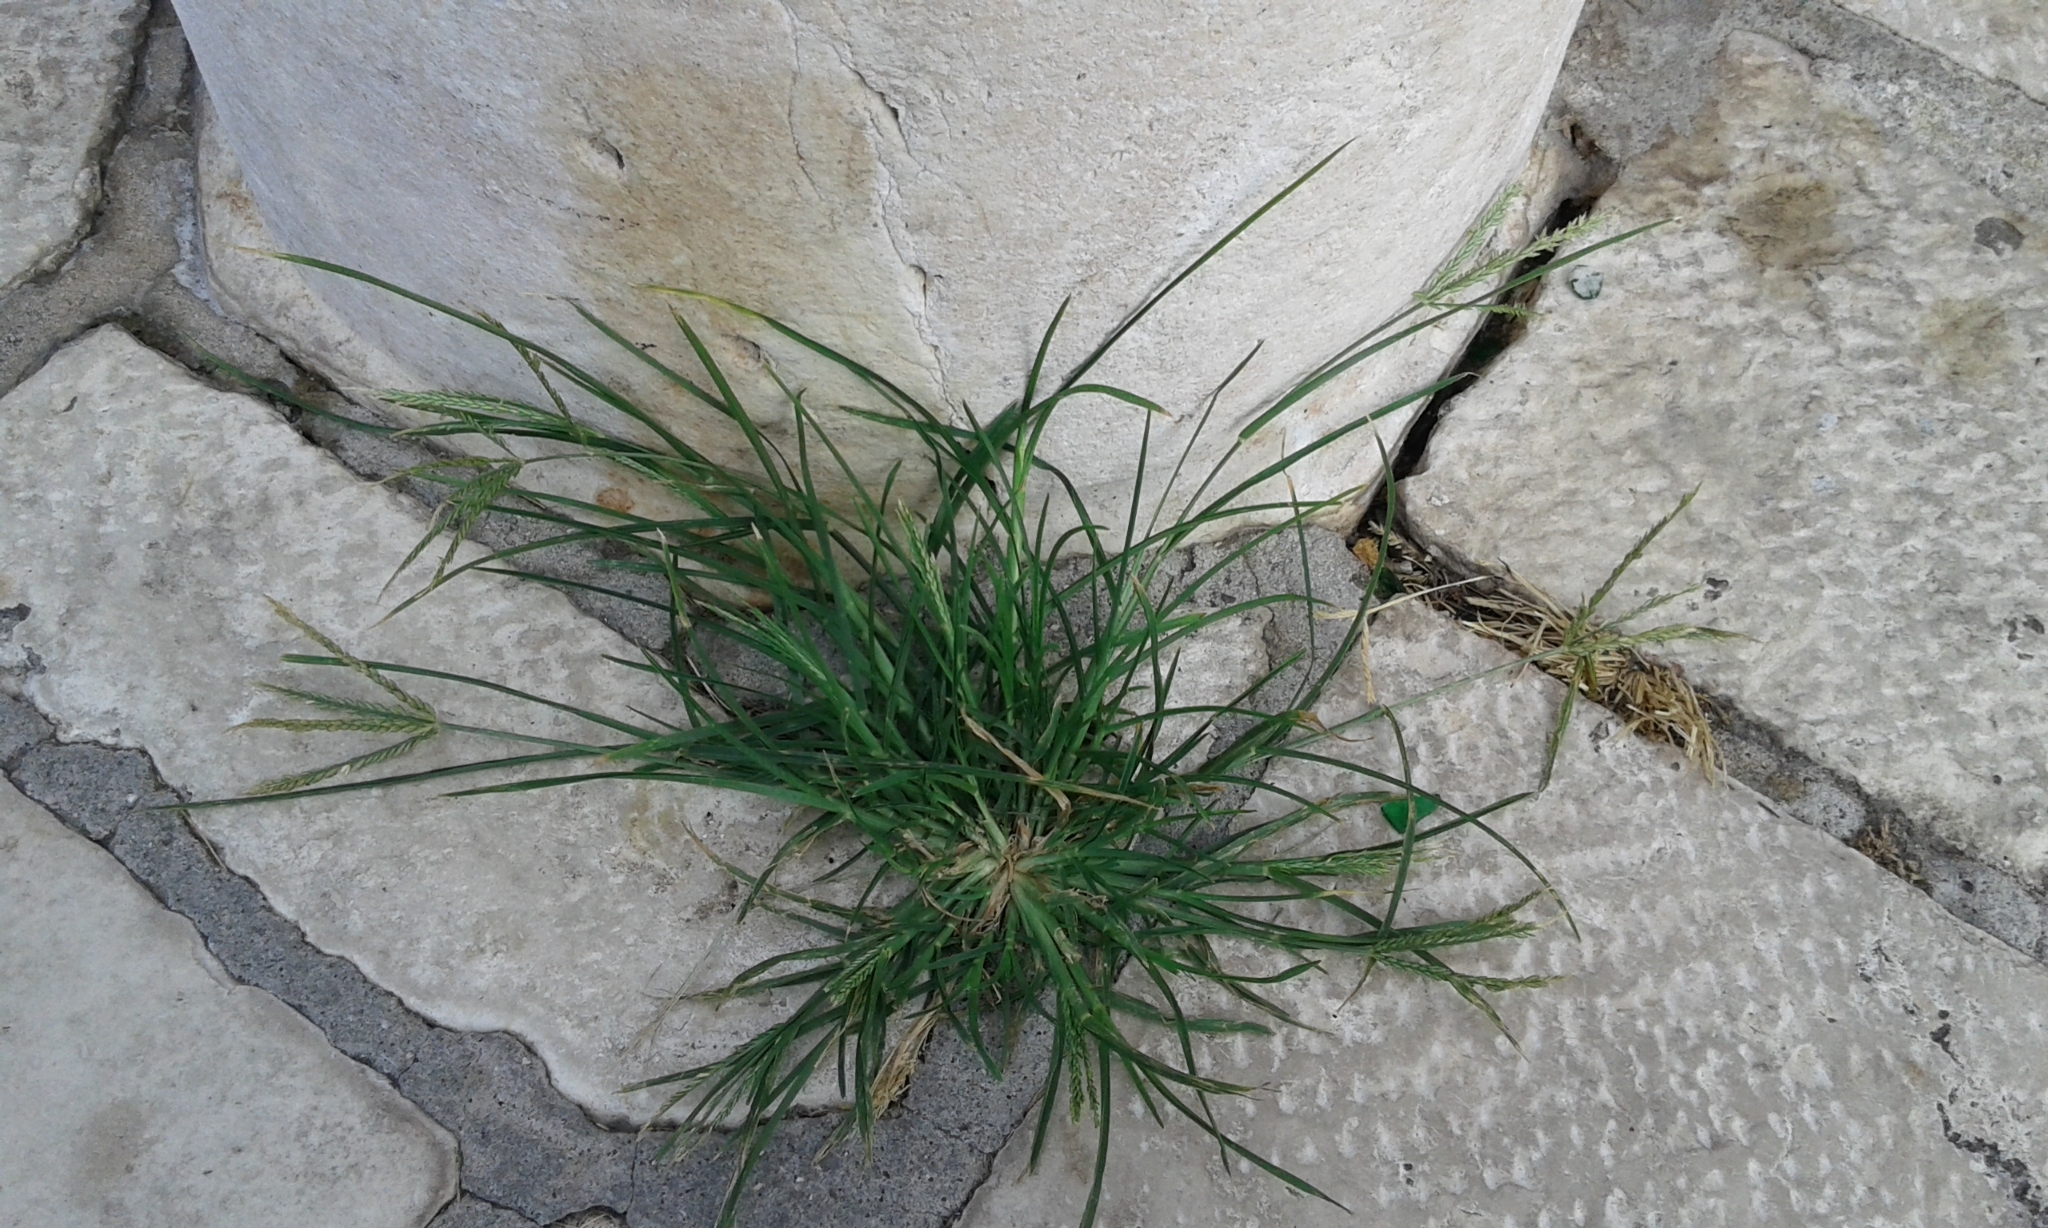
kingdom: Plantae
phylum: Tracheophyta
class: Liliopsida
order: Poales
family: Poaceae
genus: Eleusine
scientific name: Eleusine indica
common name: Yard-grass
